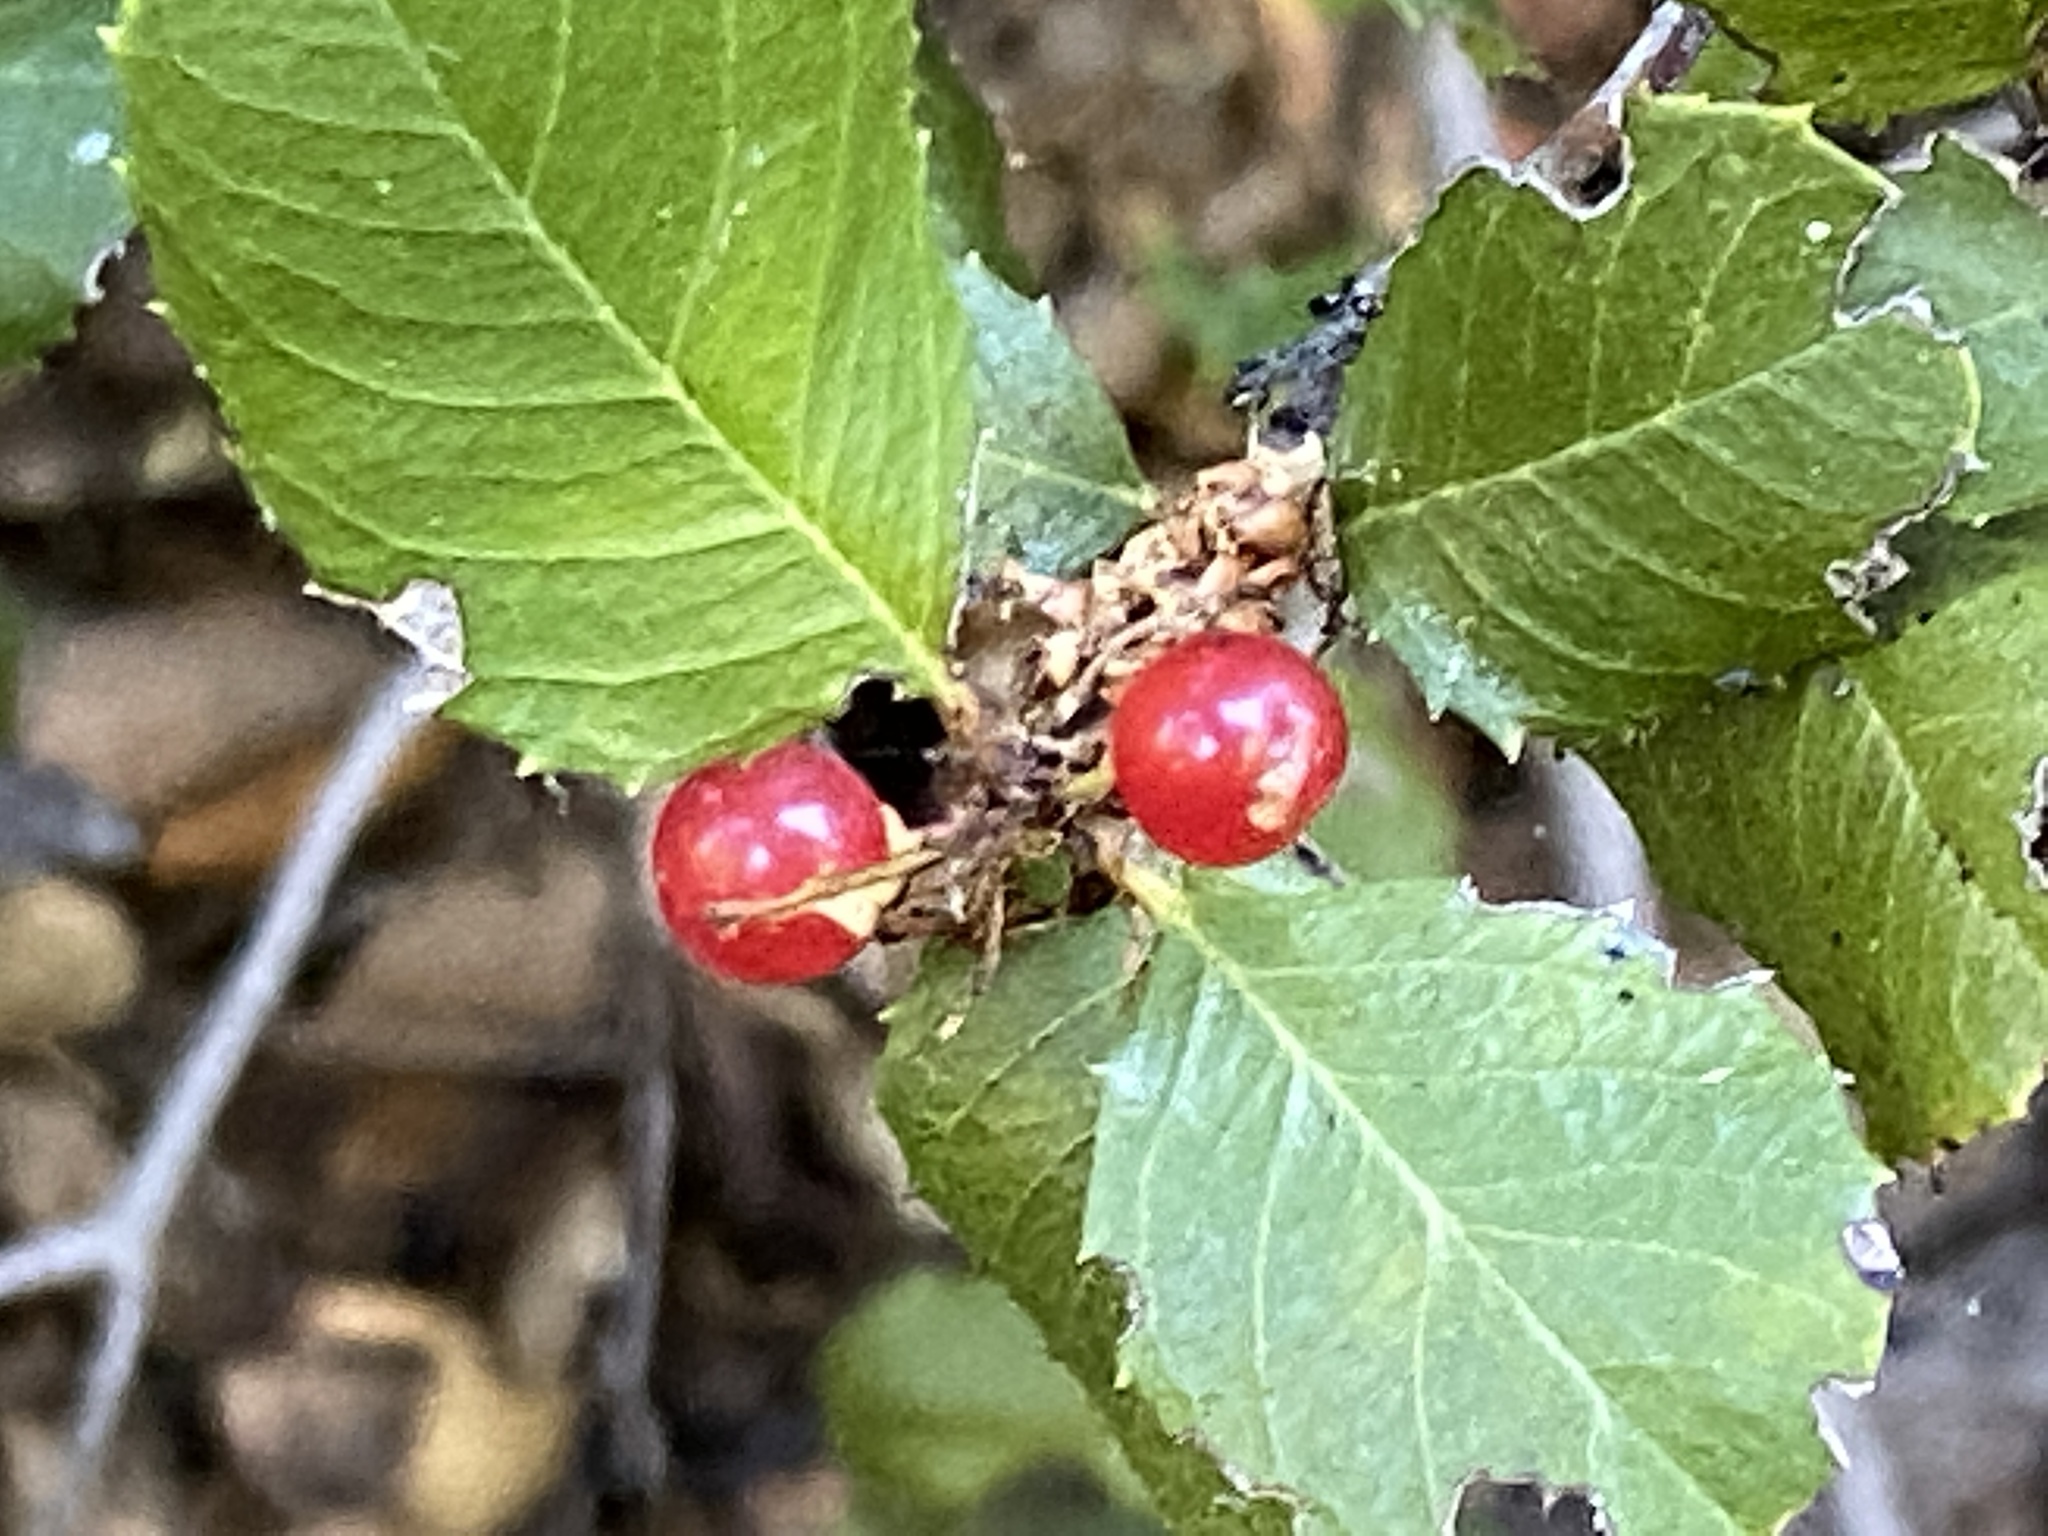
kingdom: Plantae
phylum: Tracheophyta
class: Magnoliopsida
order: Rosales
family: Rhamnaceae
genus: Endotropis
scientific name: Endotropis crocea
